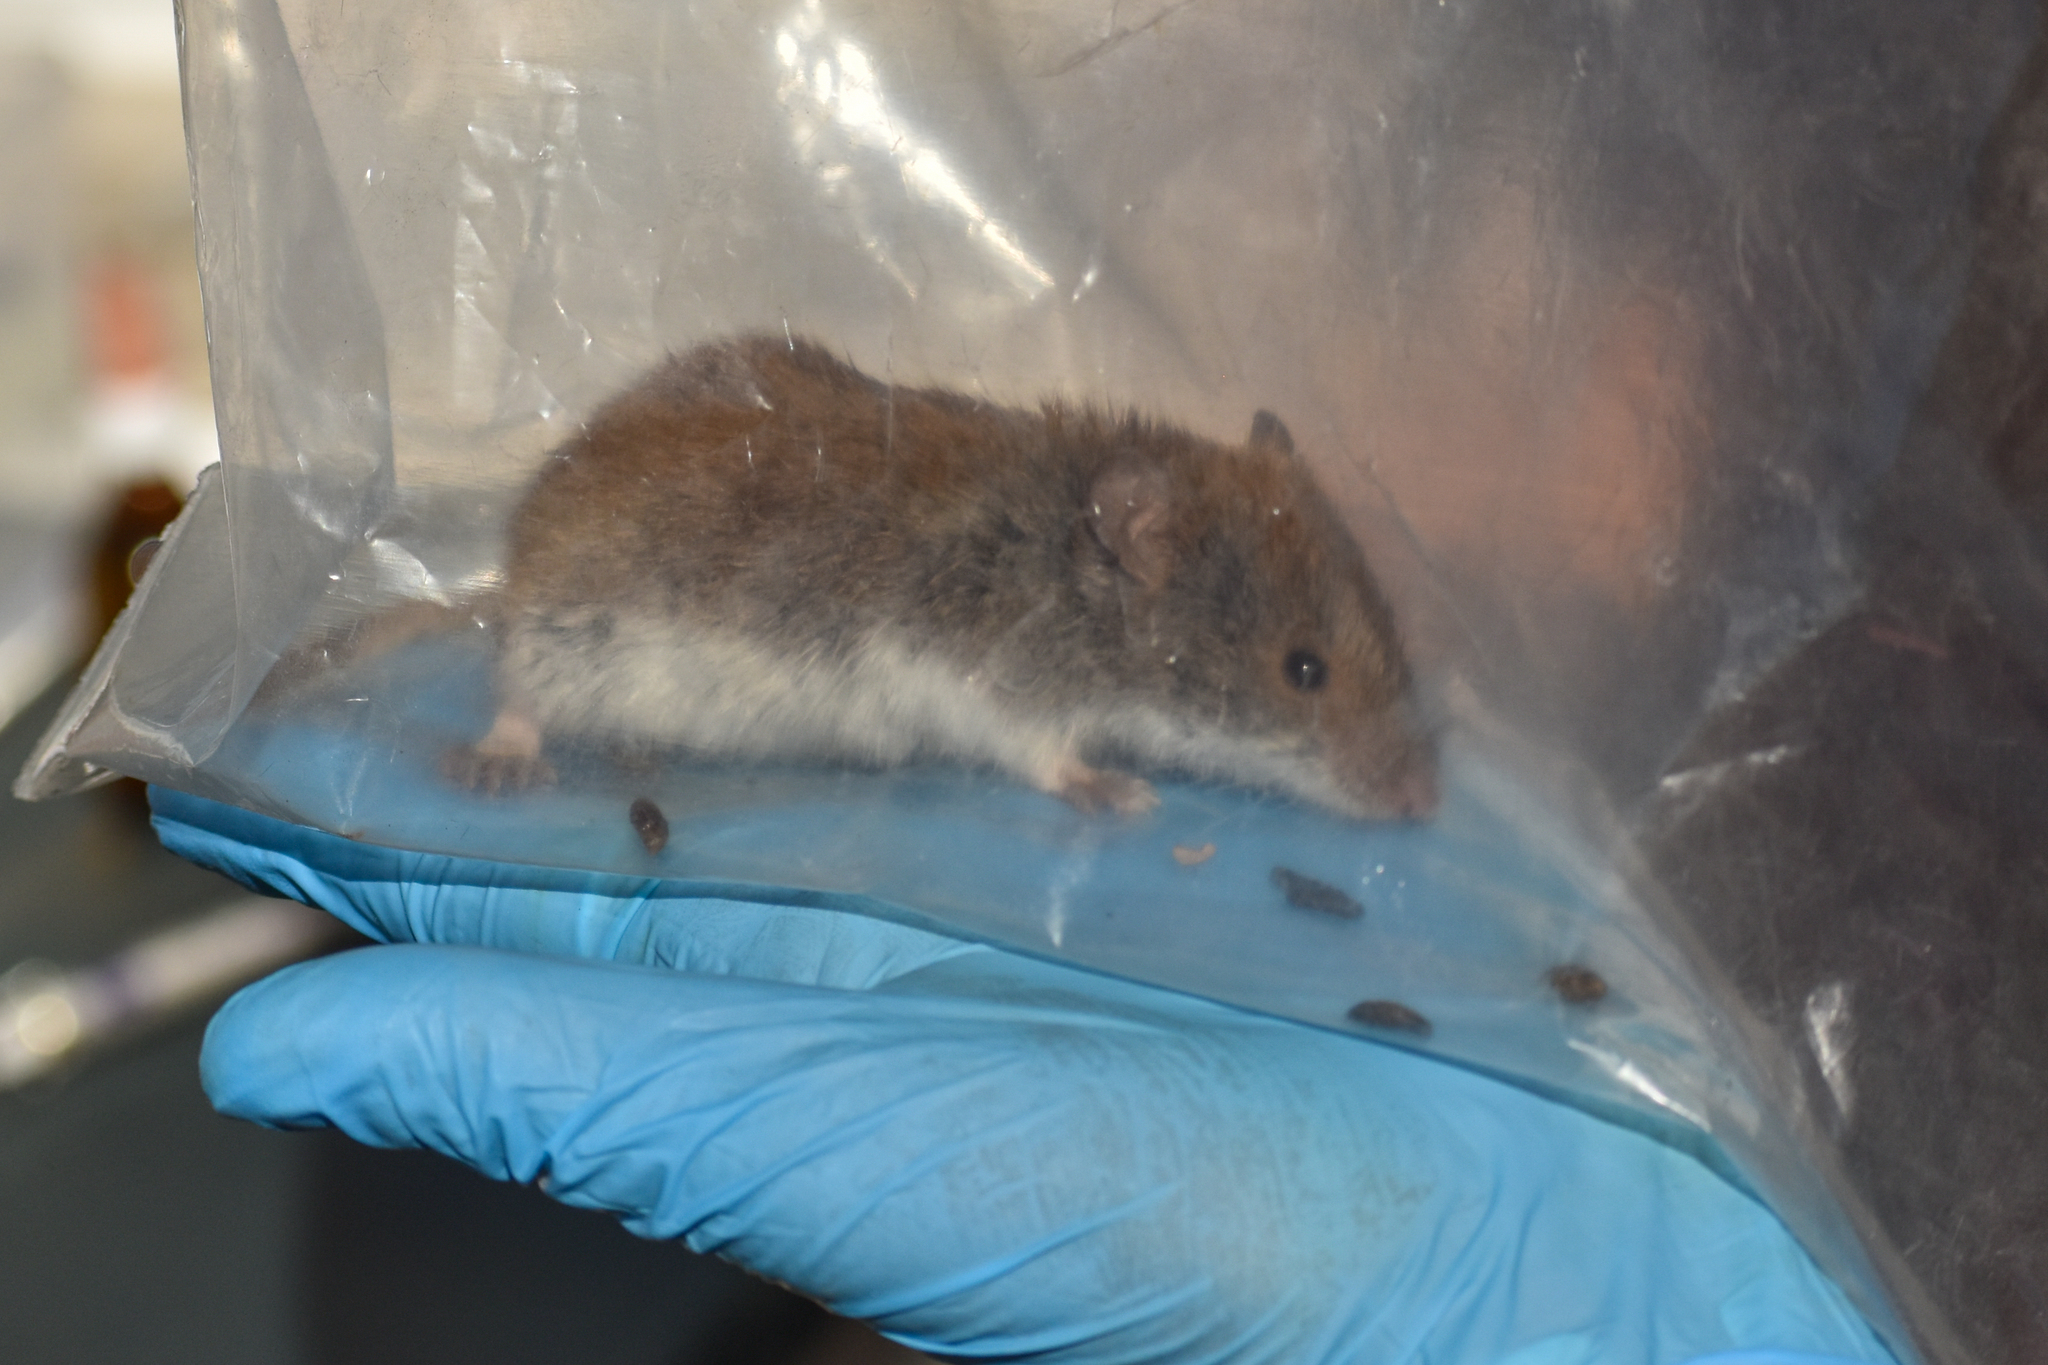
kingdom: Animalia
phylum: Chordata
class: Mammalia
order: Rodentia
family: Cricetidae
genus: Abrothrix
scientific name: Abrothrix longipilis
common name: Long-haired akodont
